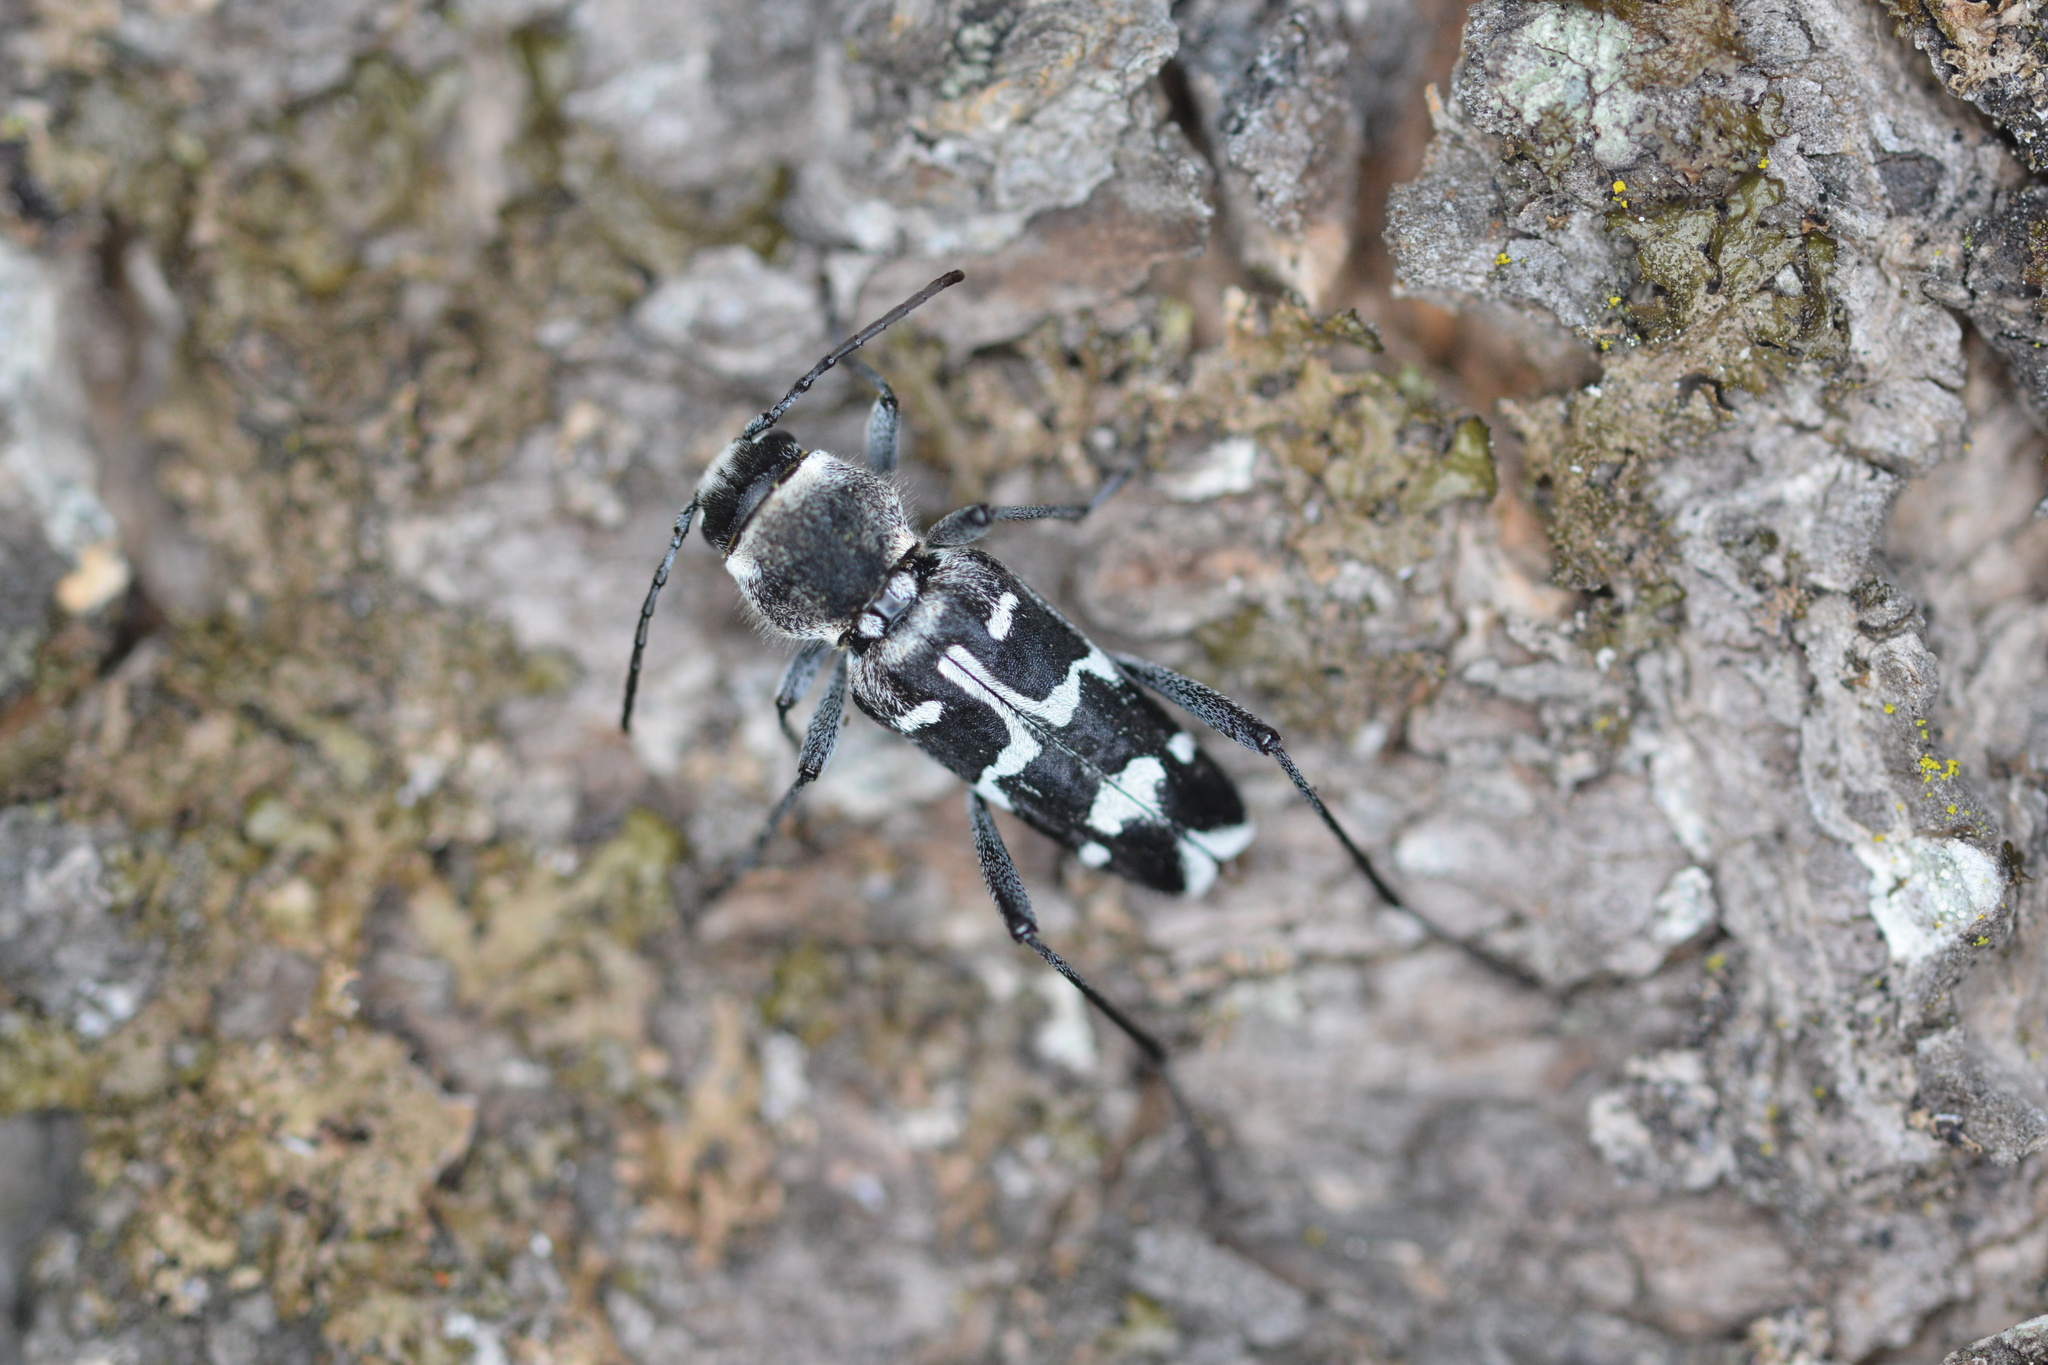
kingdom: Animalia
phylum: Arthropoda
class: Insecta
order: Coleoptera
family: Cerambycidae
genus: Xylotrechus
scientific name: Xylotrechus albonotatus
